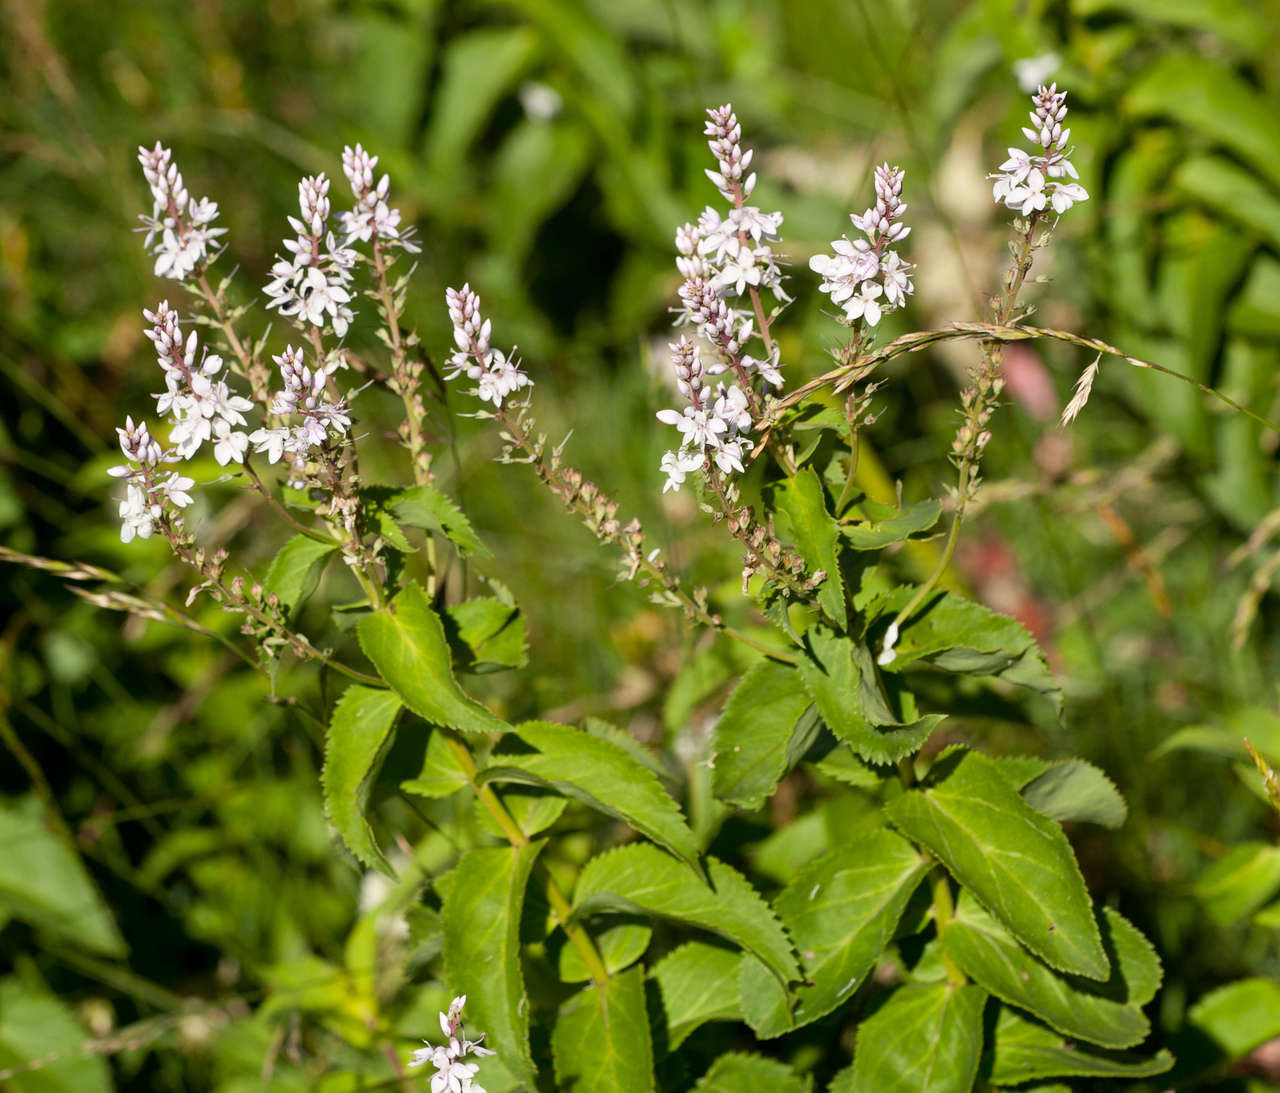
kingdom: Plantae
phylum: Tracheophyta
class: Magnoliopsida
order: Lamiales
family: Plantaginaceae
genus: Veronica
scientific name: Veronica derwentiana
